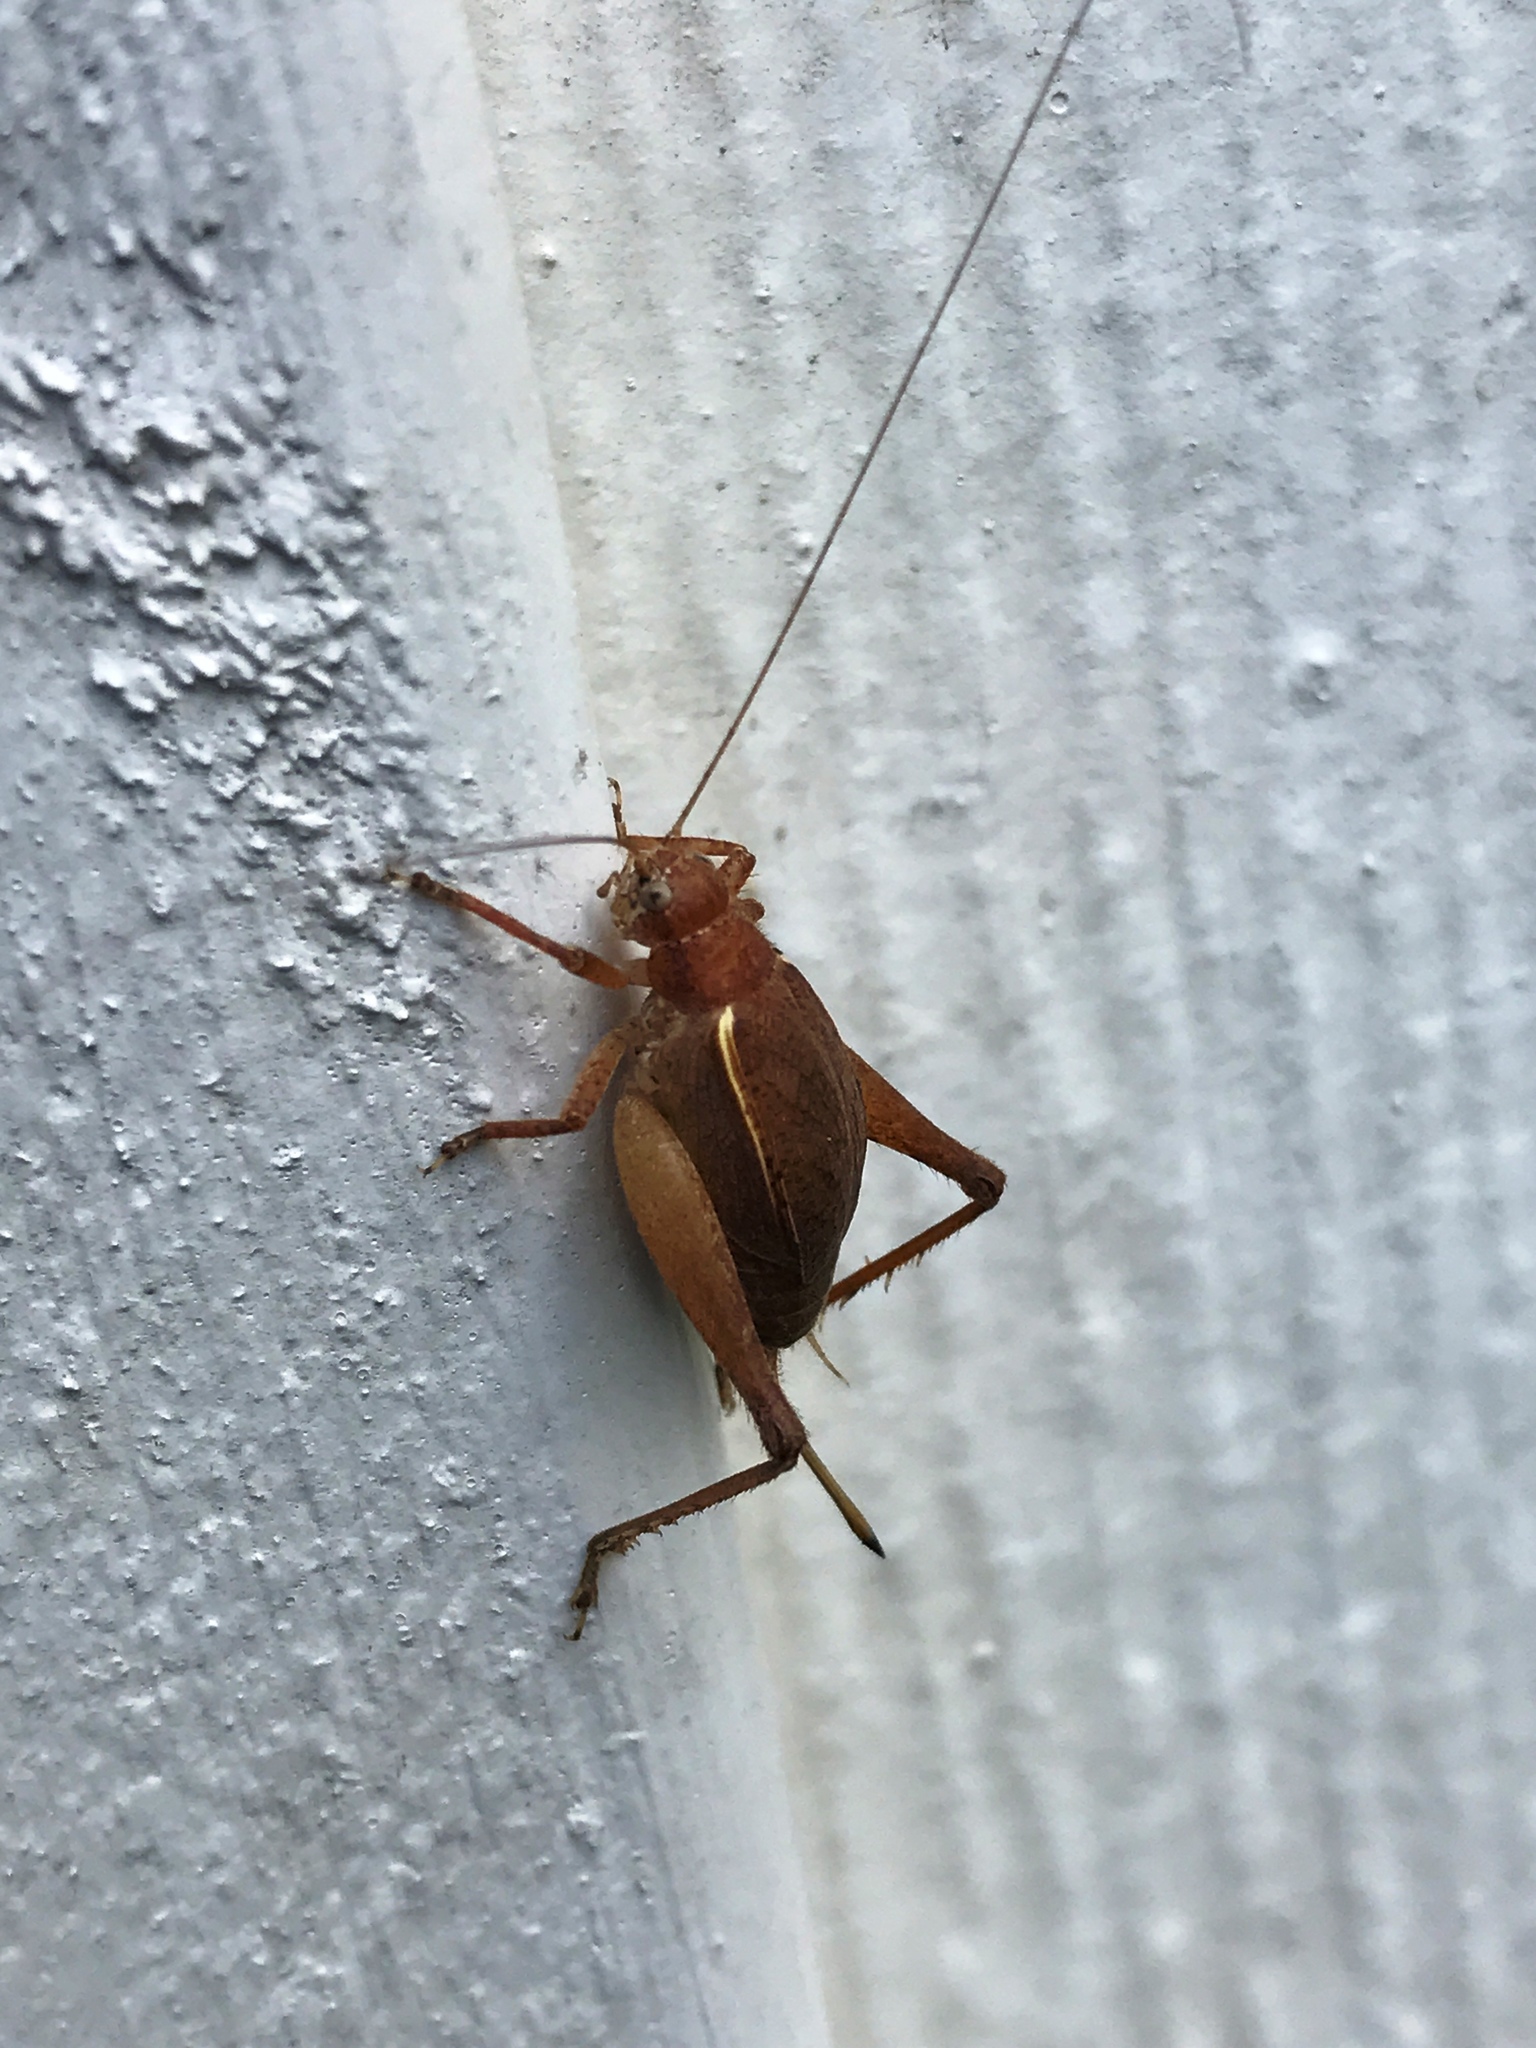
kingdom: Animalia
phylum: Arthropoda
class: Insecta
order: Orthoptera
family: Gryllidae
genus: Hapithus
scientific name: Hapithus agitator
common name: Restless bush cricket
